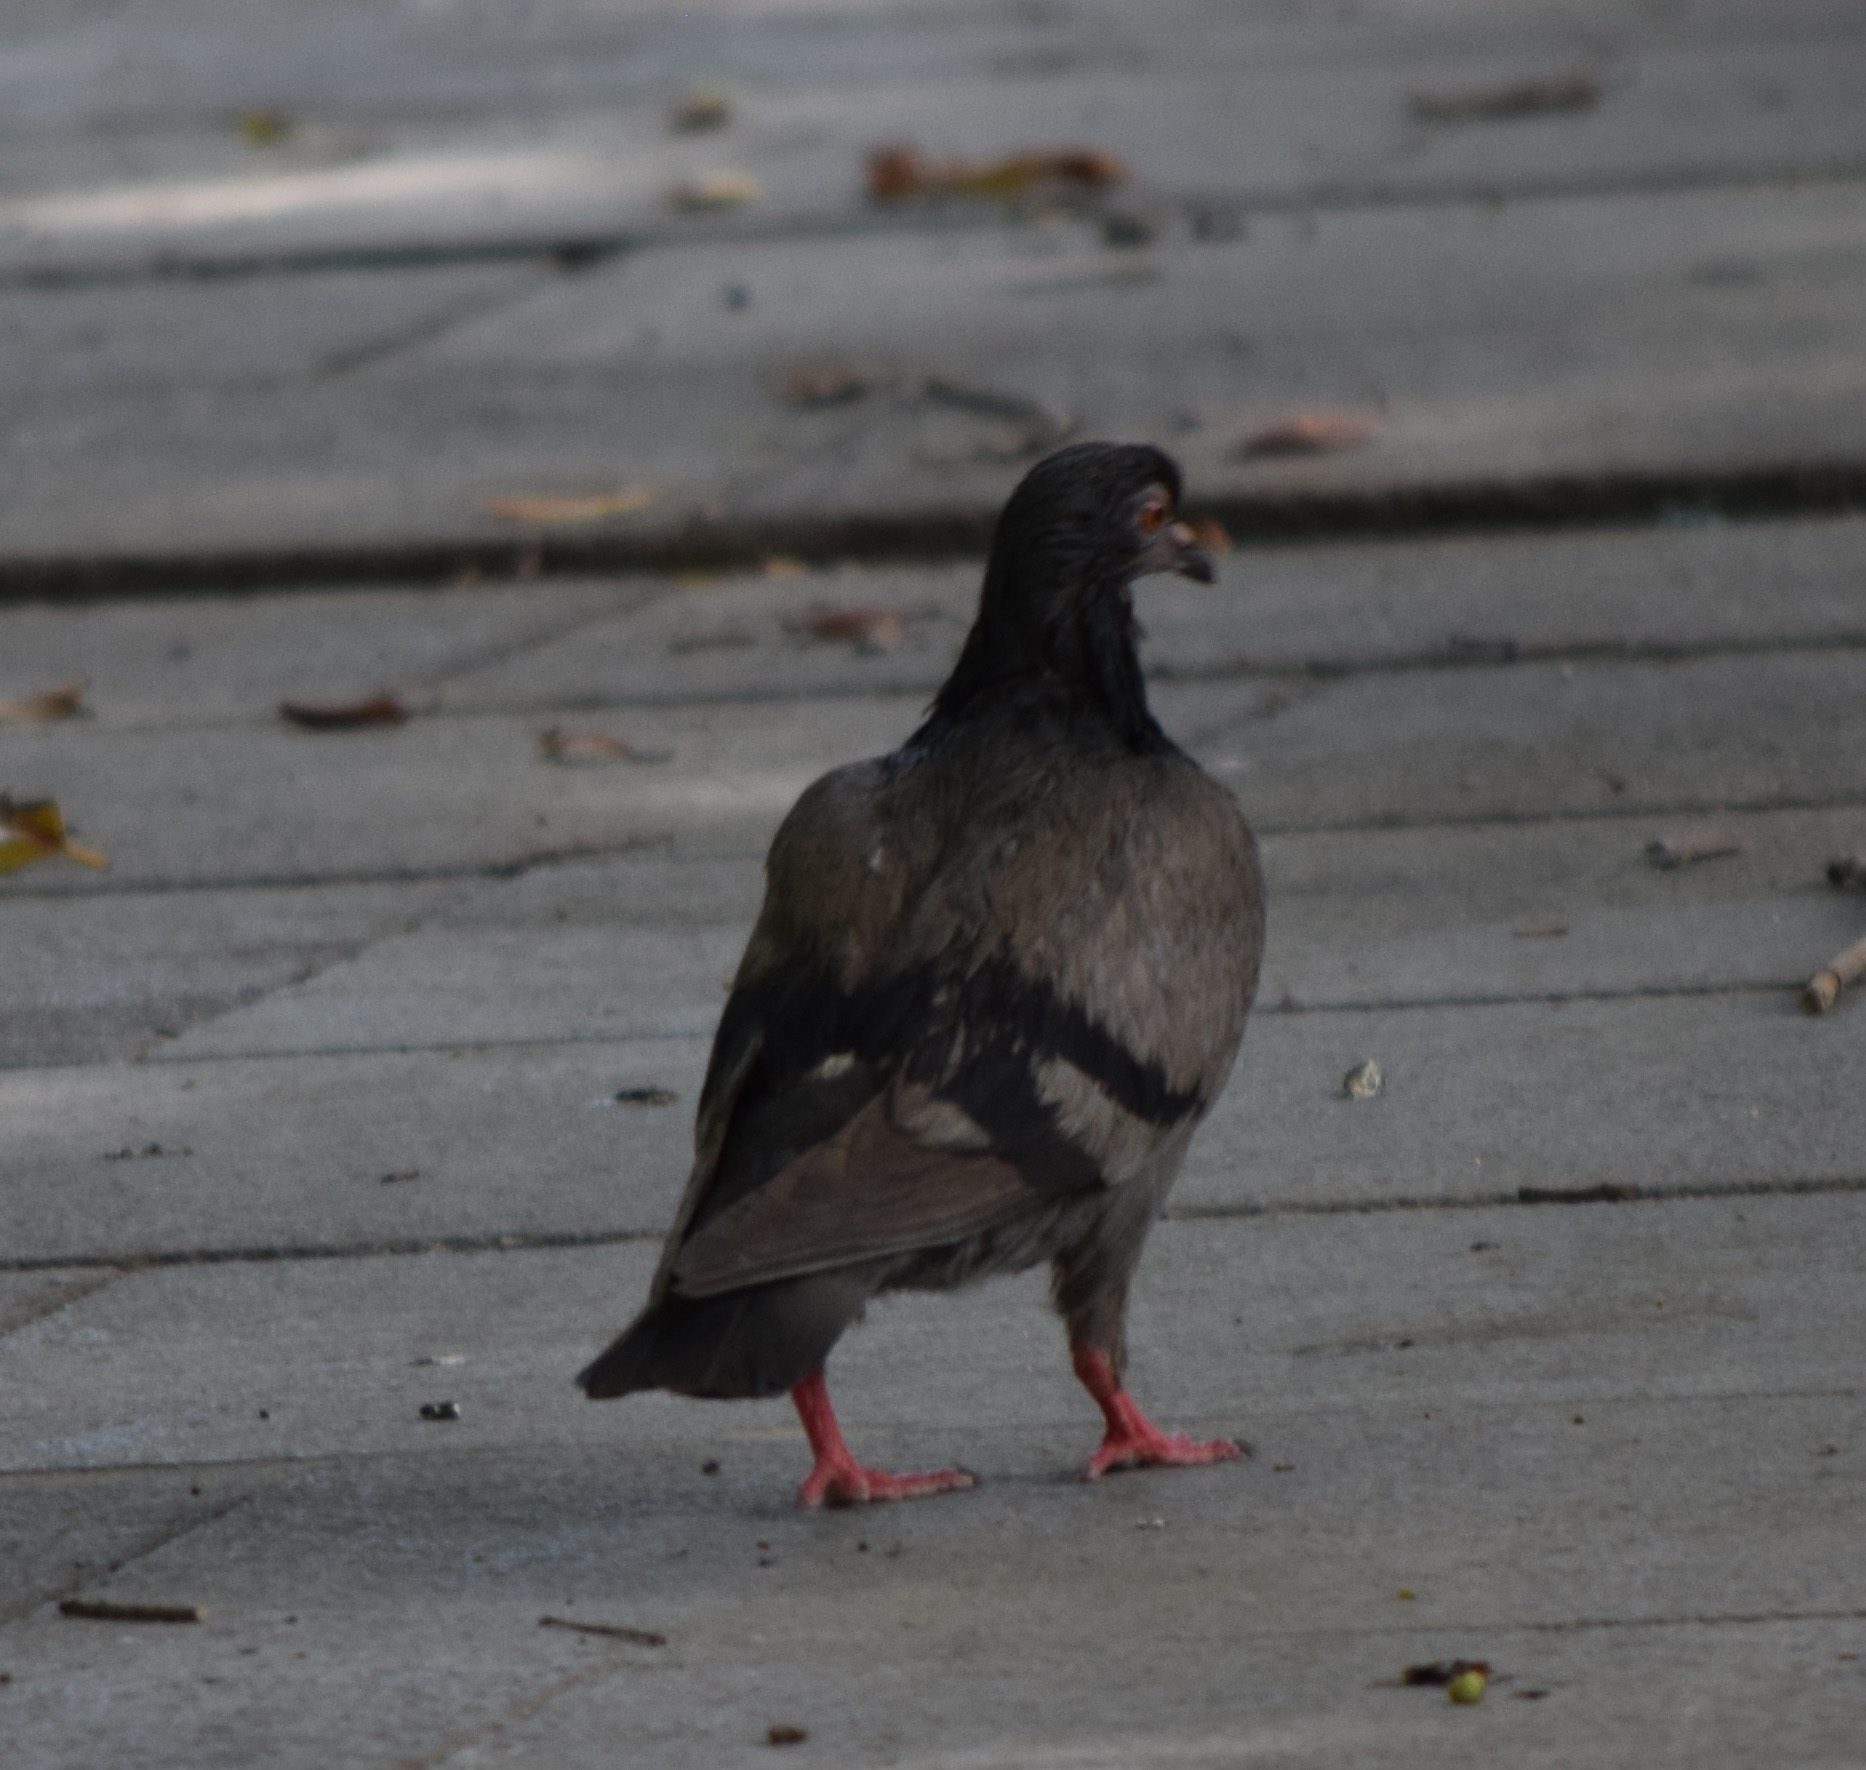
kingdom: Animalia
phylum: Chordata
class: Aves
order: Columbiformes
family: Columbidae
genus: Columba
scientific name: Columba livia
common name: Rock pigeon
